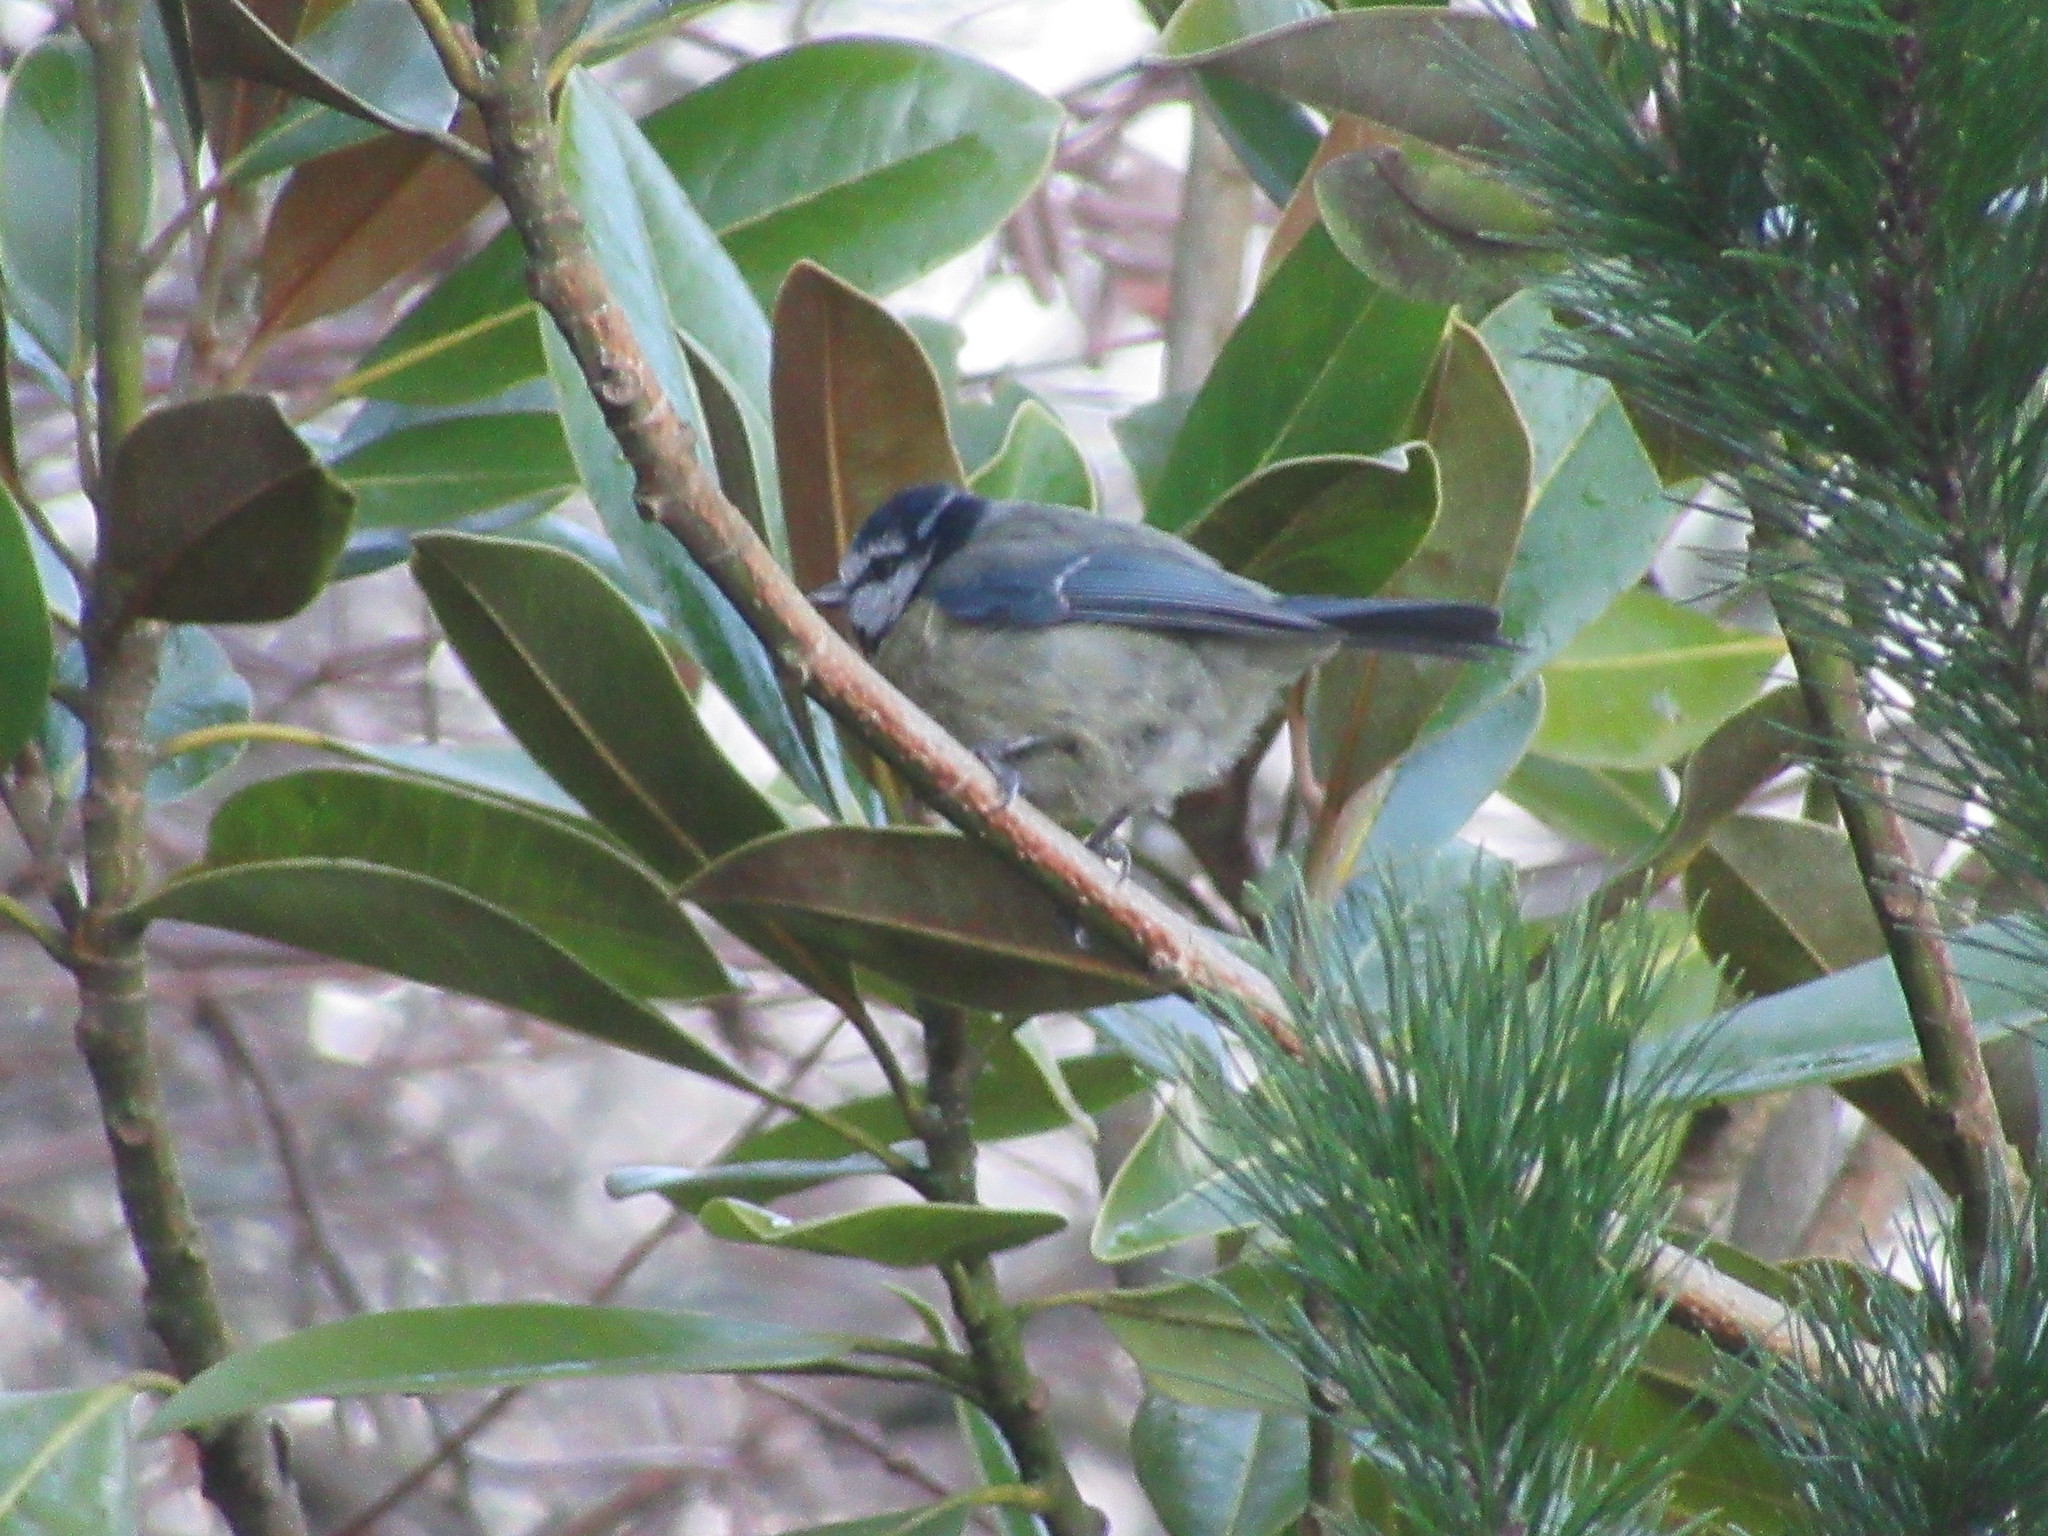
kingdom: Animalia
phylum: Chordata
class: Aves
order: Passeriformes
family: Paridae
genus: Cyanistes
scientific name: Cyanistes caeruleus
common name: Eurasian blue tit
